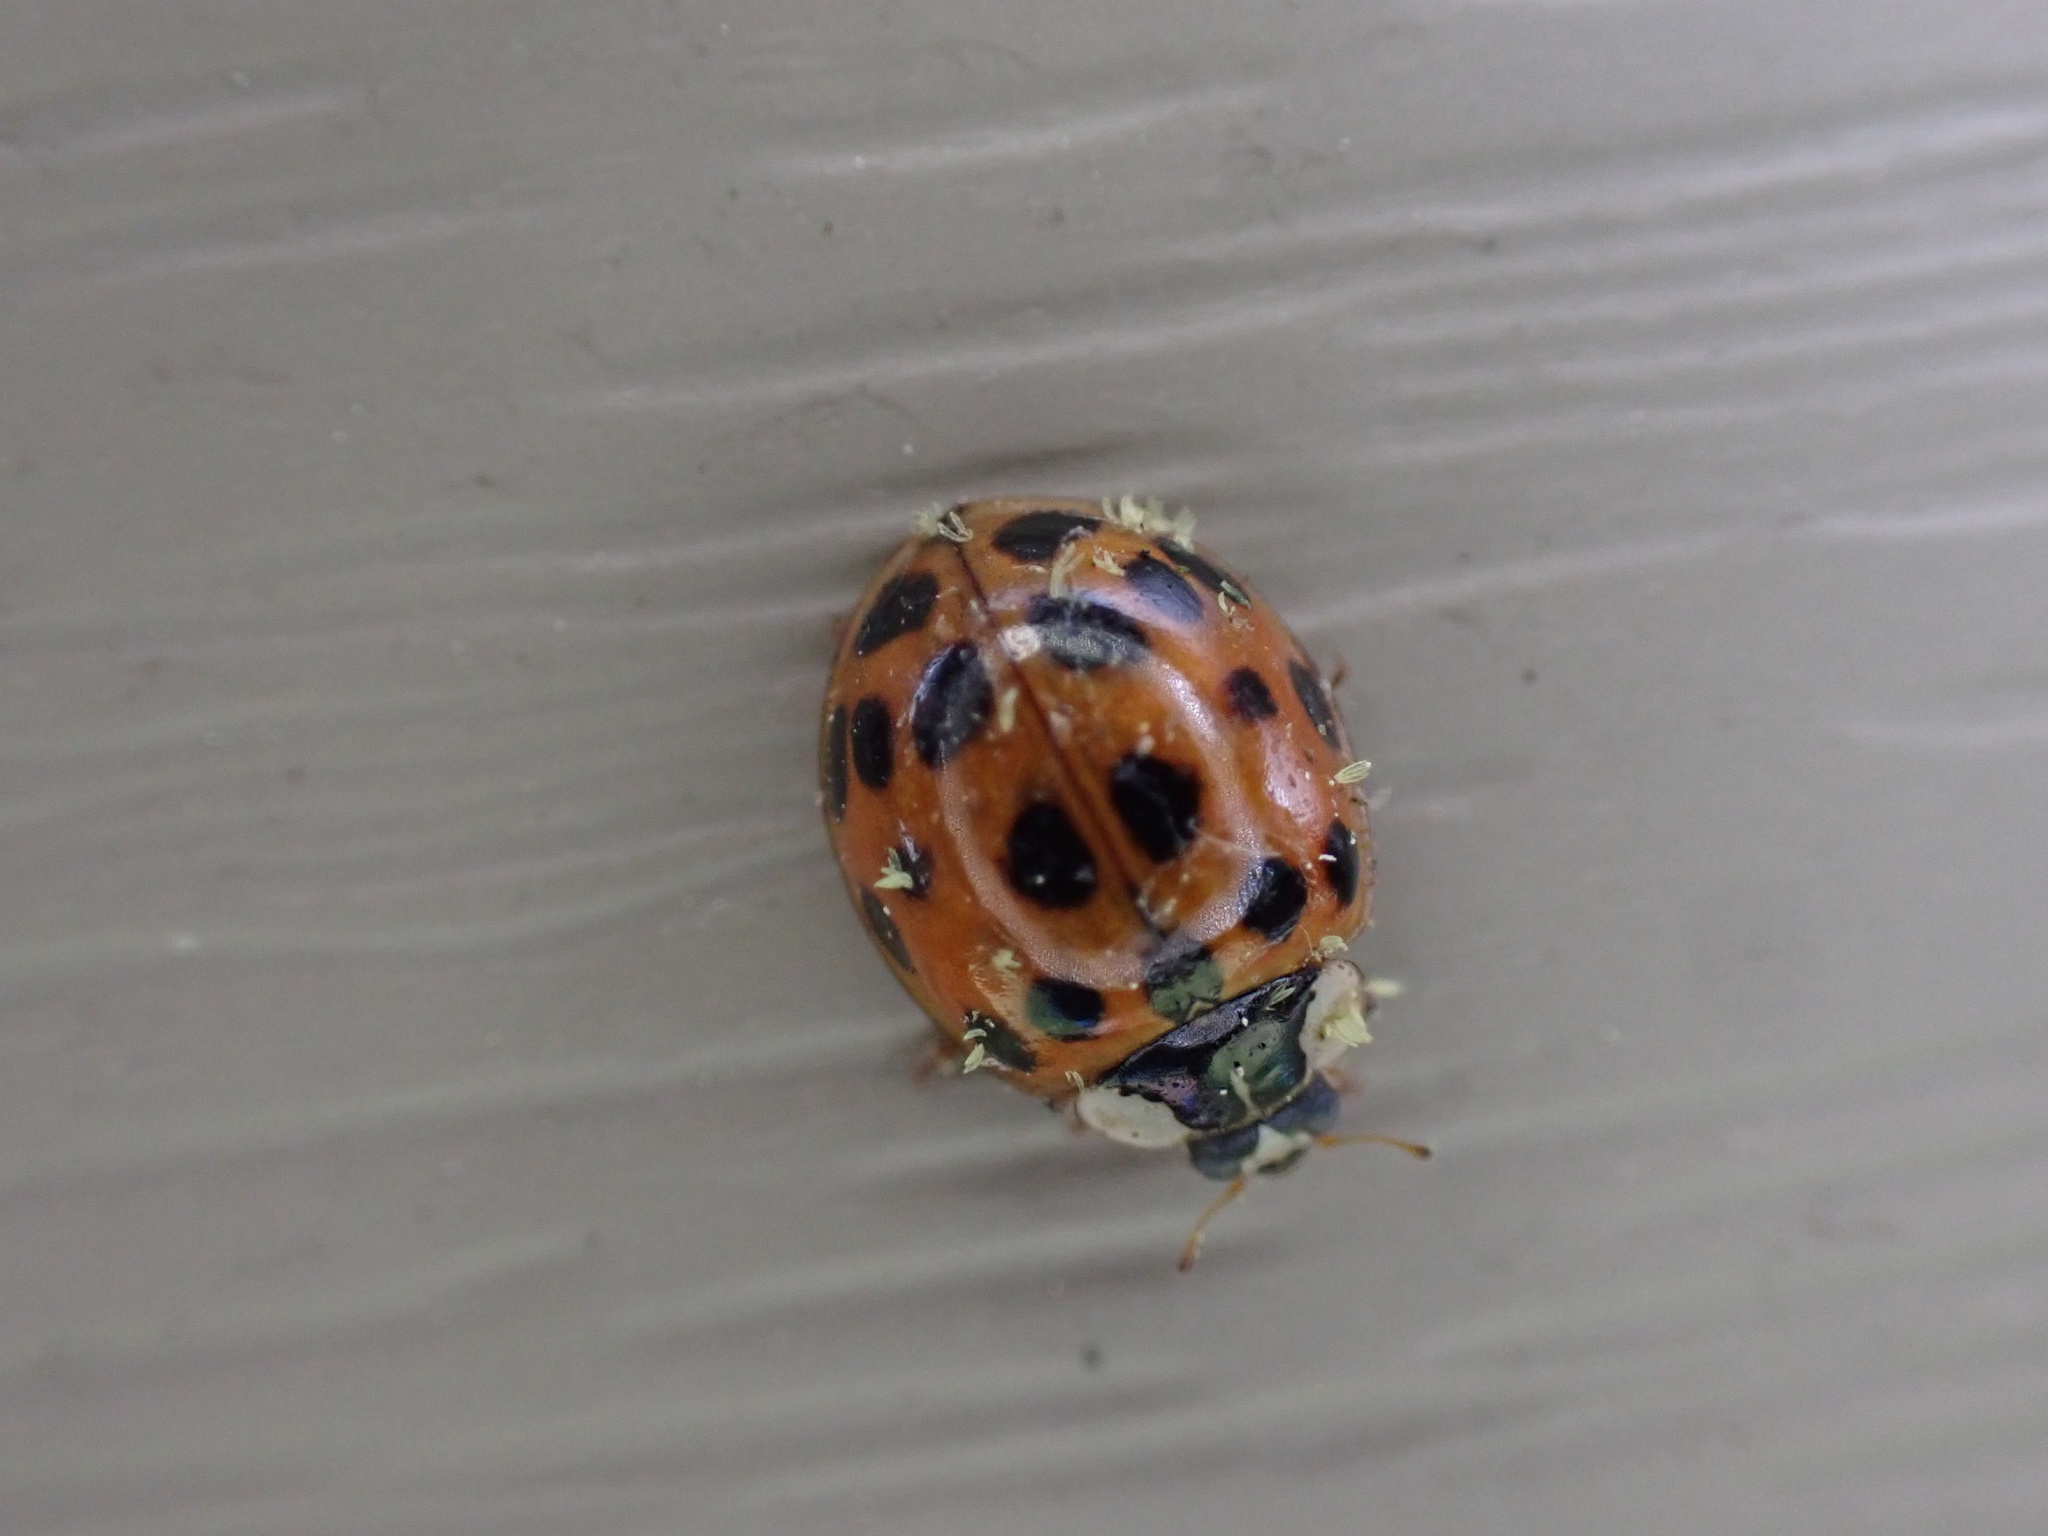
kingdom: Fungi
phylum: Ascomycota
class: Laboulbeniomycetes
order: Laboulbeniales
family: Laboulbeniaceae
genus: Hesperomyces
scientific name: Hesperomyces harmoniae
